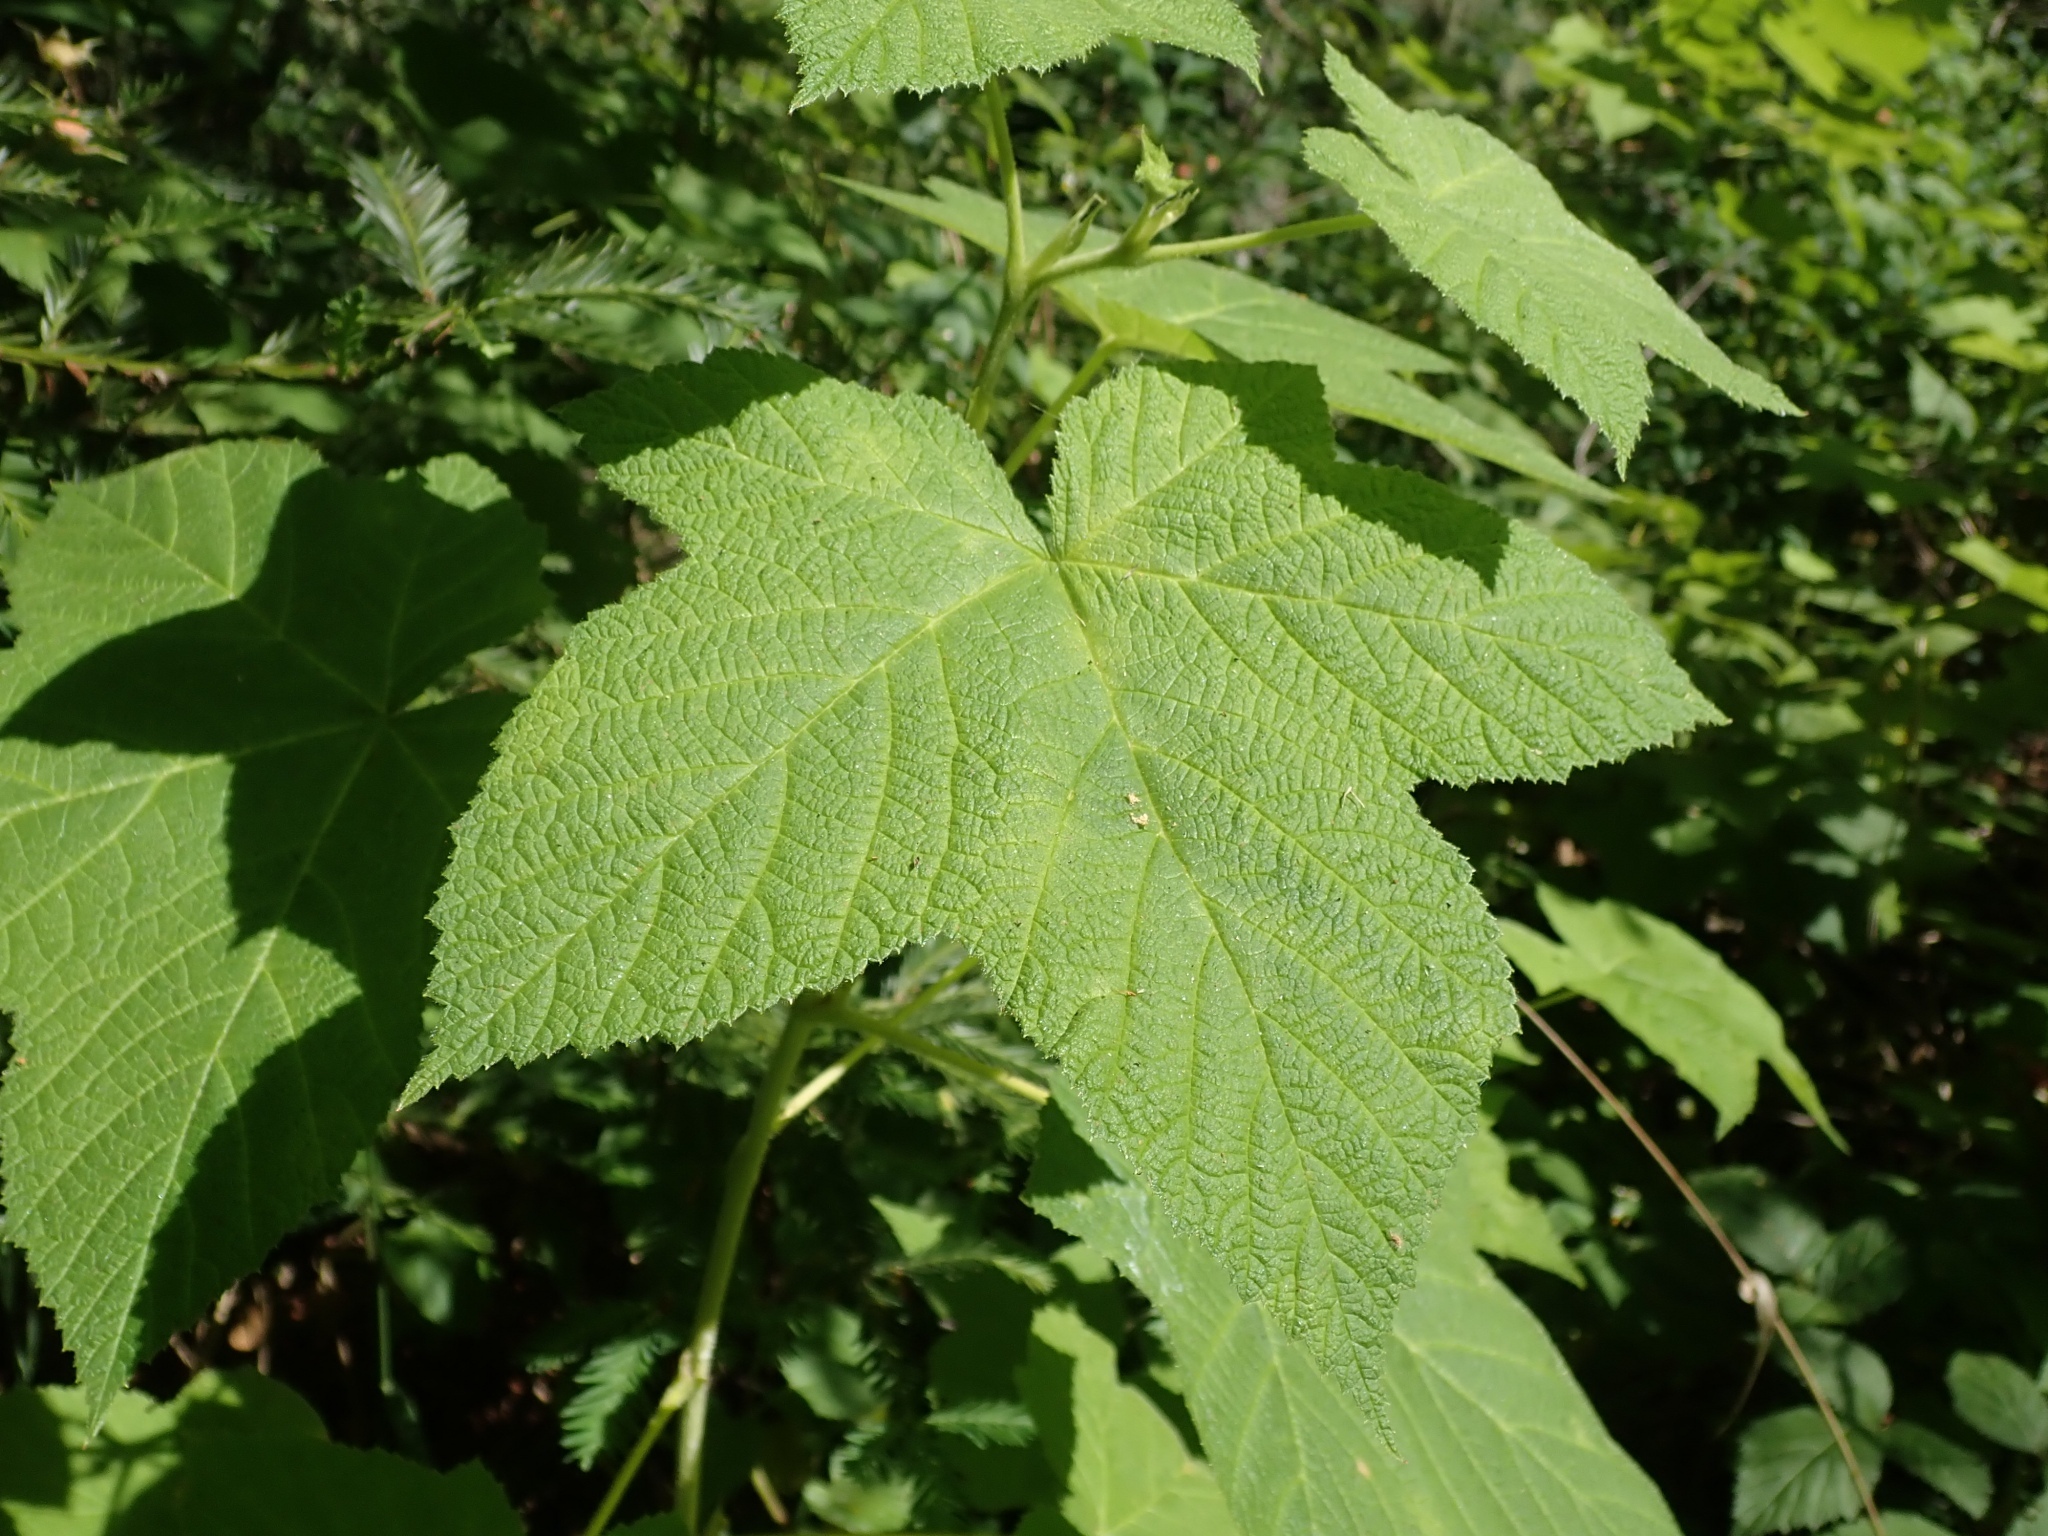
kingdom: Plantae
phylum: Tracheophyta
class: Magnoliopsida
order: Rosales
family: Rosaceae
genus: Rubus
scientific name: Rubus parviflorus
